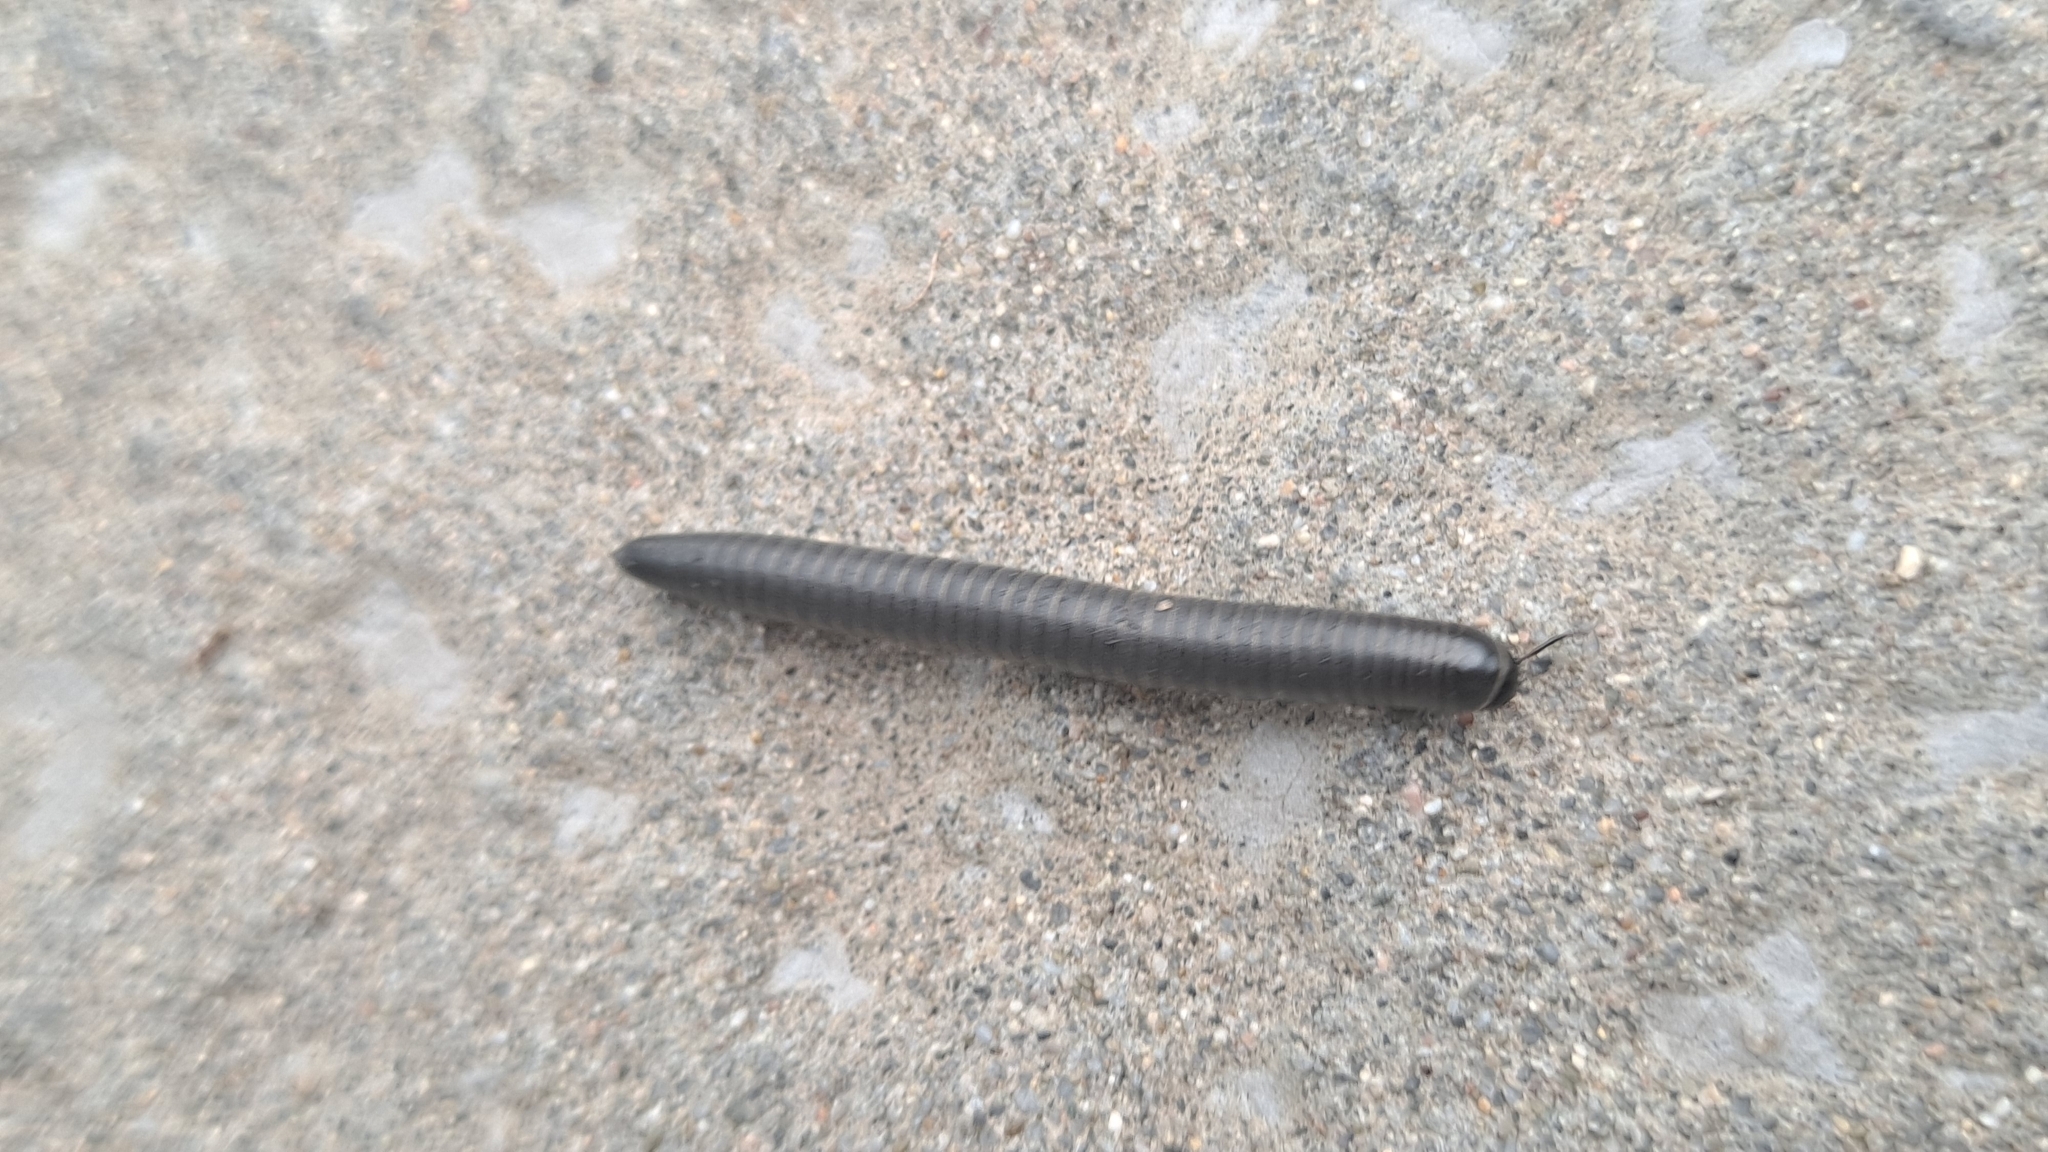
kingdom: Animalia
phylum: Arthropoda
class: Diplopoda
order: Julida
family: Julidae
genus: Ommatoiulus
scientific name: Ommatoiulus rutilans
